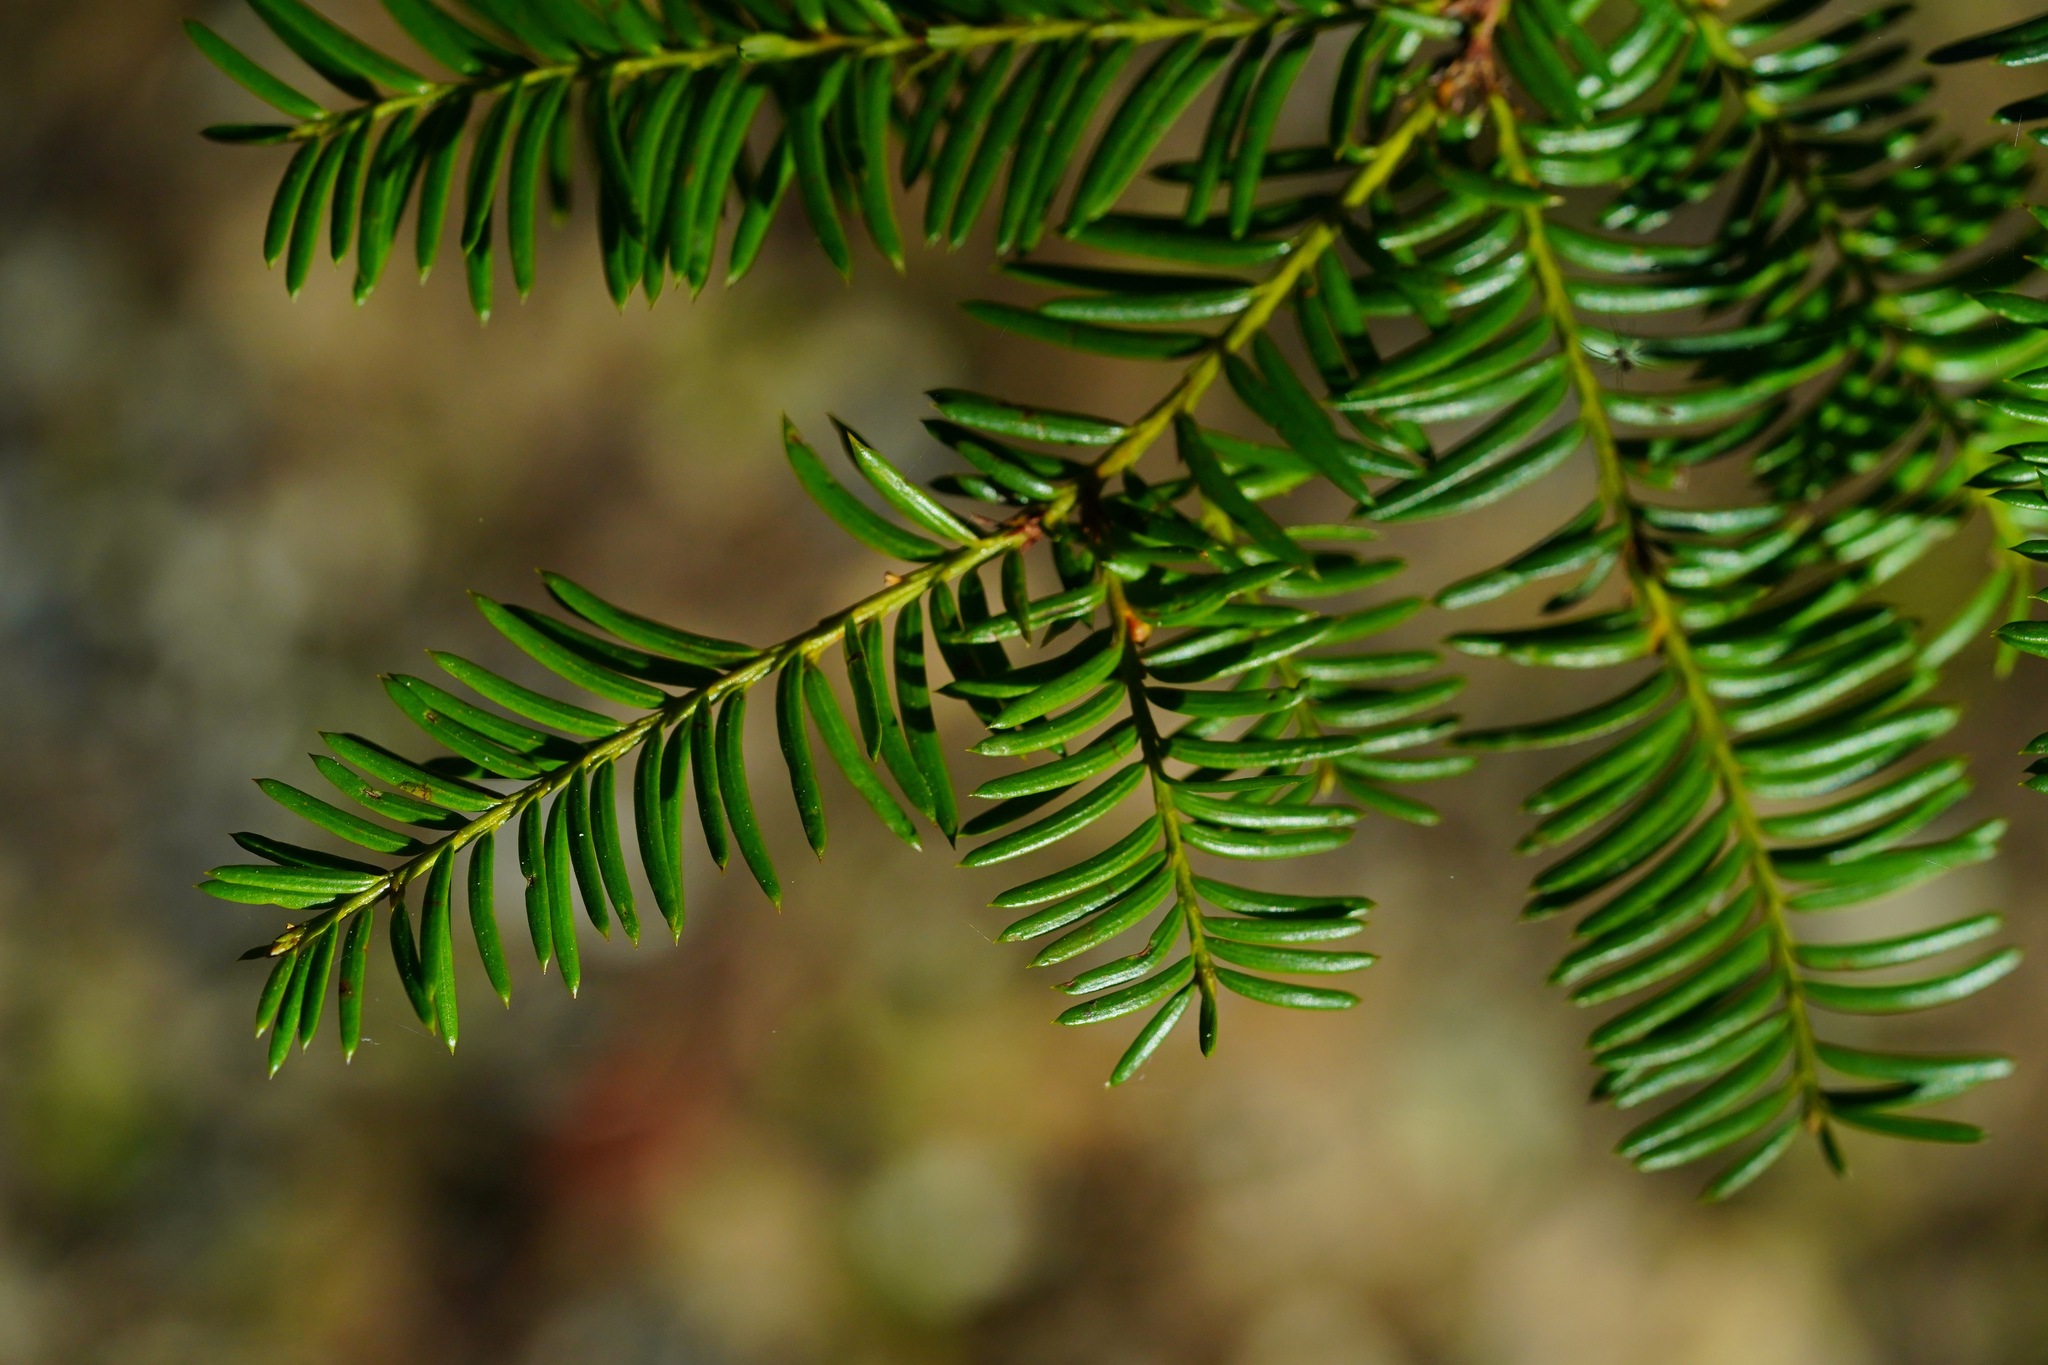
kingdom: Plantae
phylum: Tracheophyta
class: Pinopsida
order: Pinales
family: Taxaceae
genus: Taxus
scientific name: Taxus brevifolia
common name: Pacific yew
